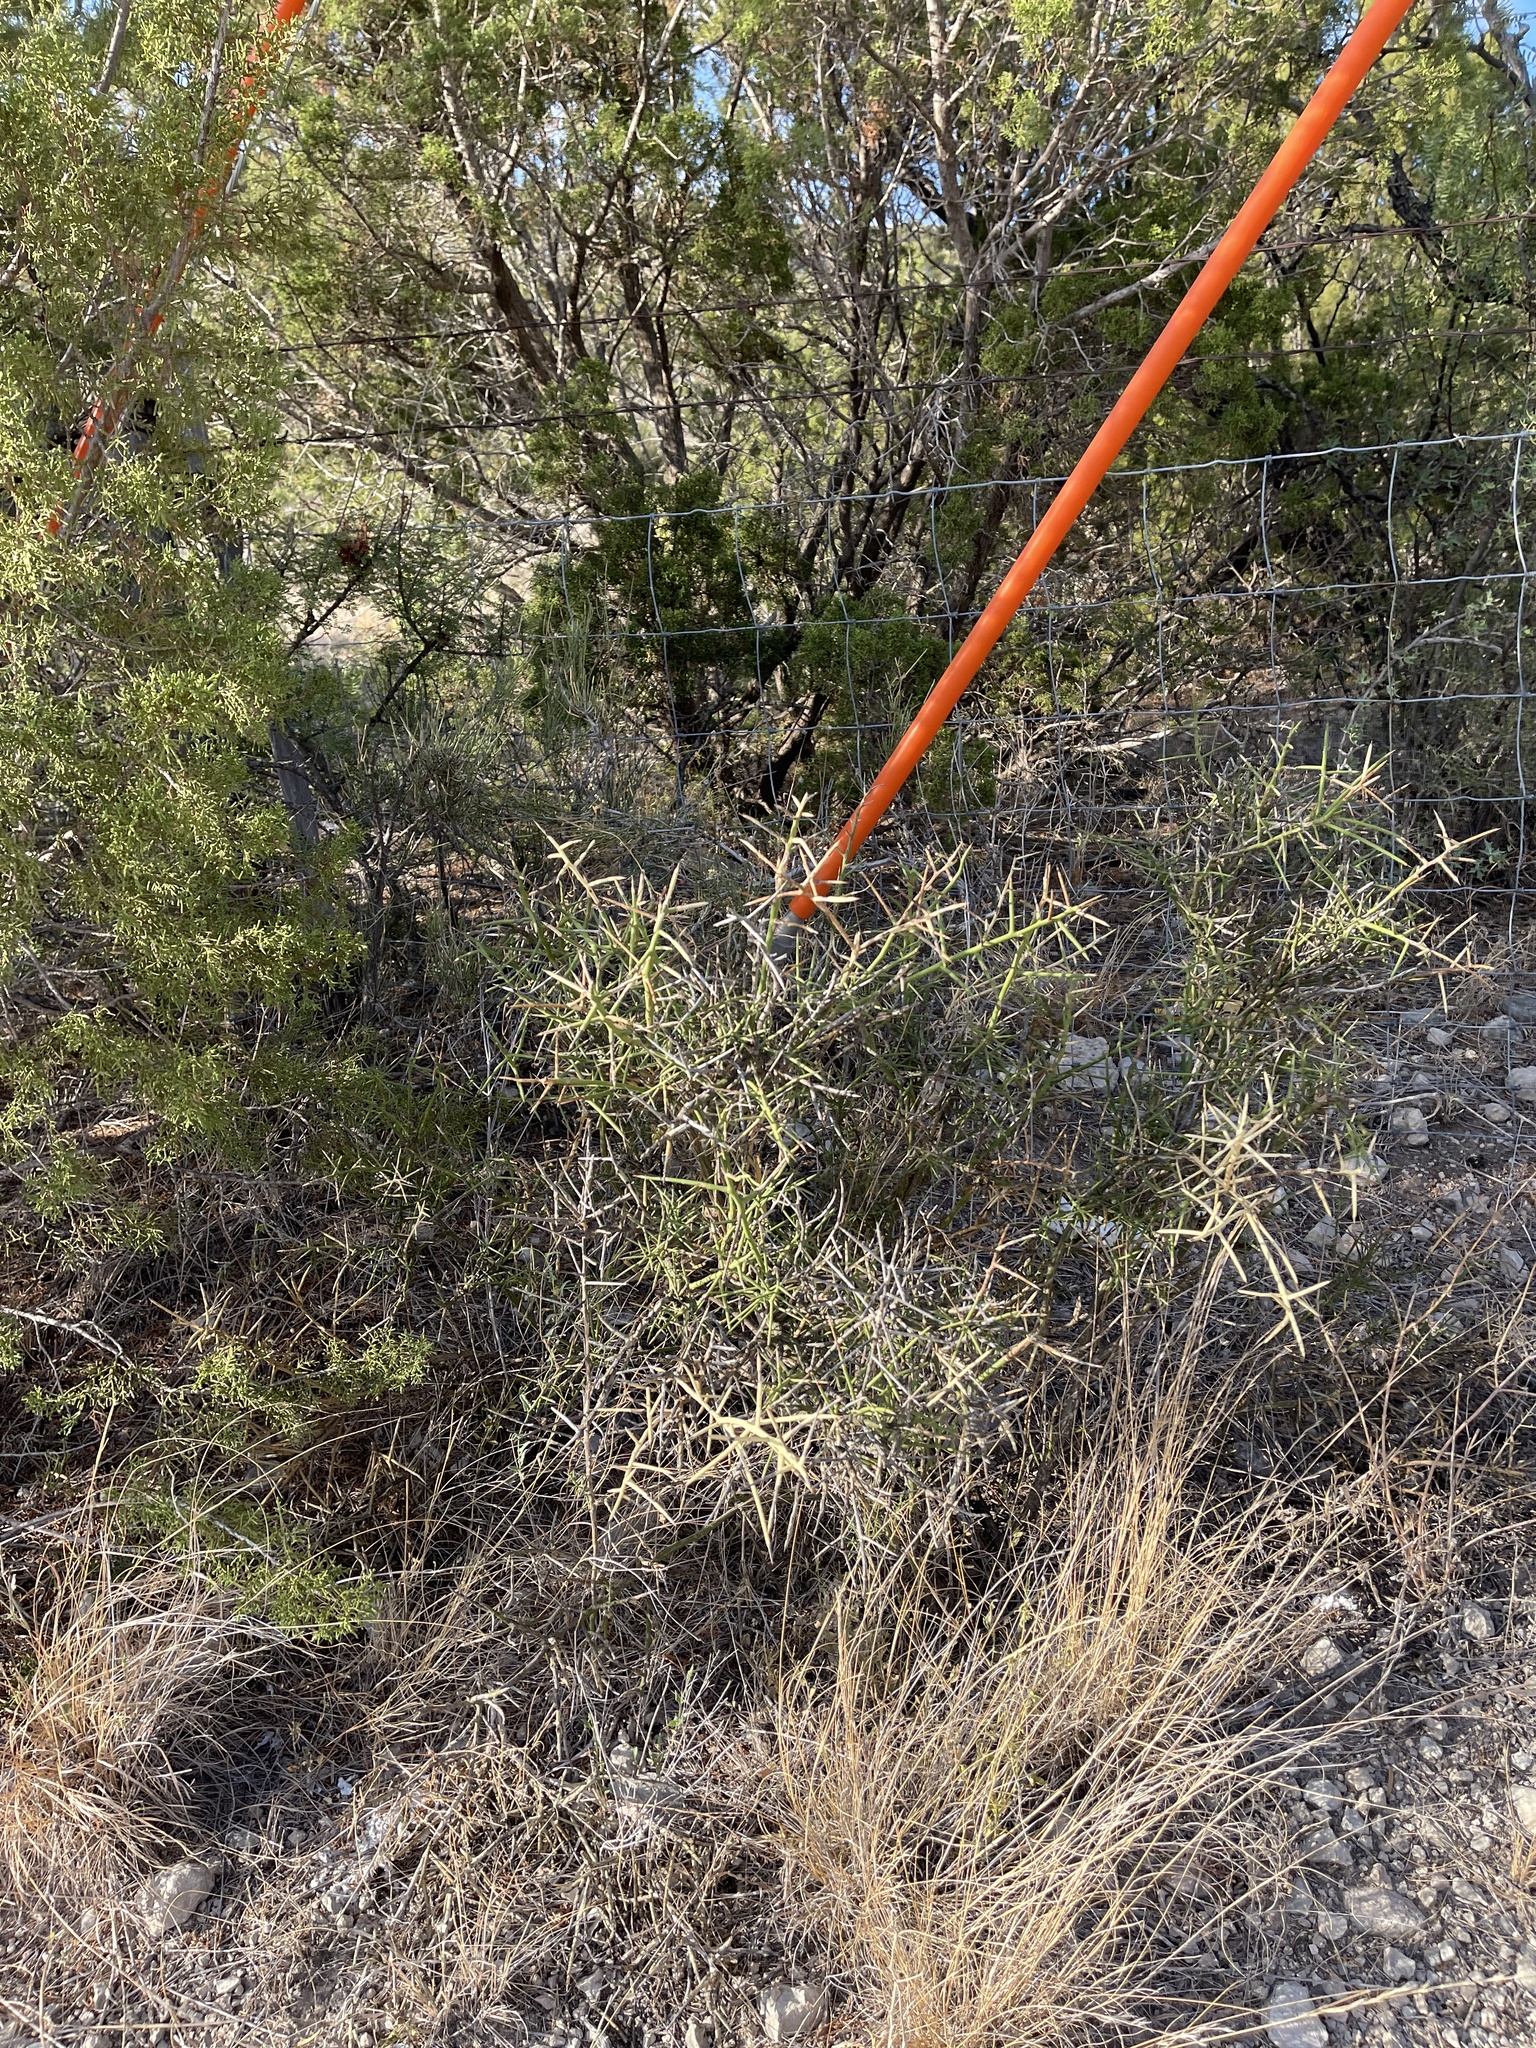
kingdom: Plantae
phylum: Tracheophyta
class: Magnoliopsida
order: Brassicales
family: Koeberliniaceae
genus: Koeberlinia
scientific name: Koeberlinia spinosa
